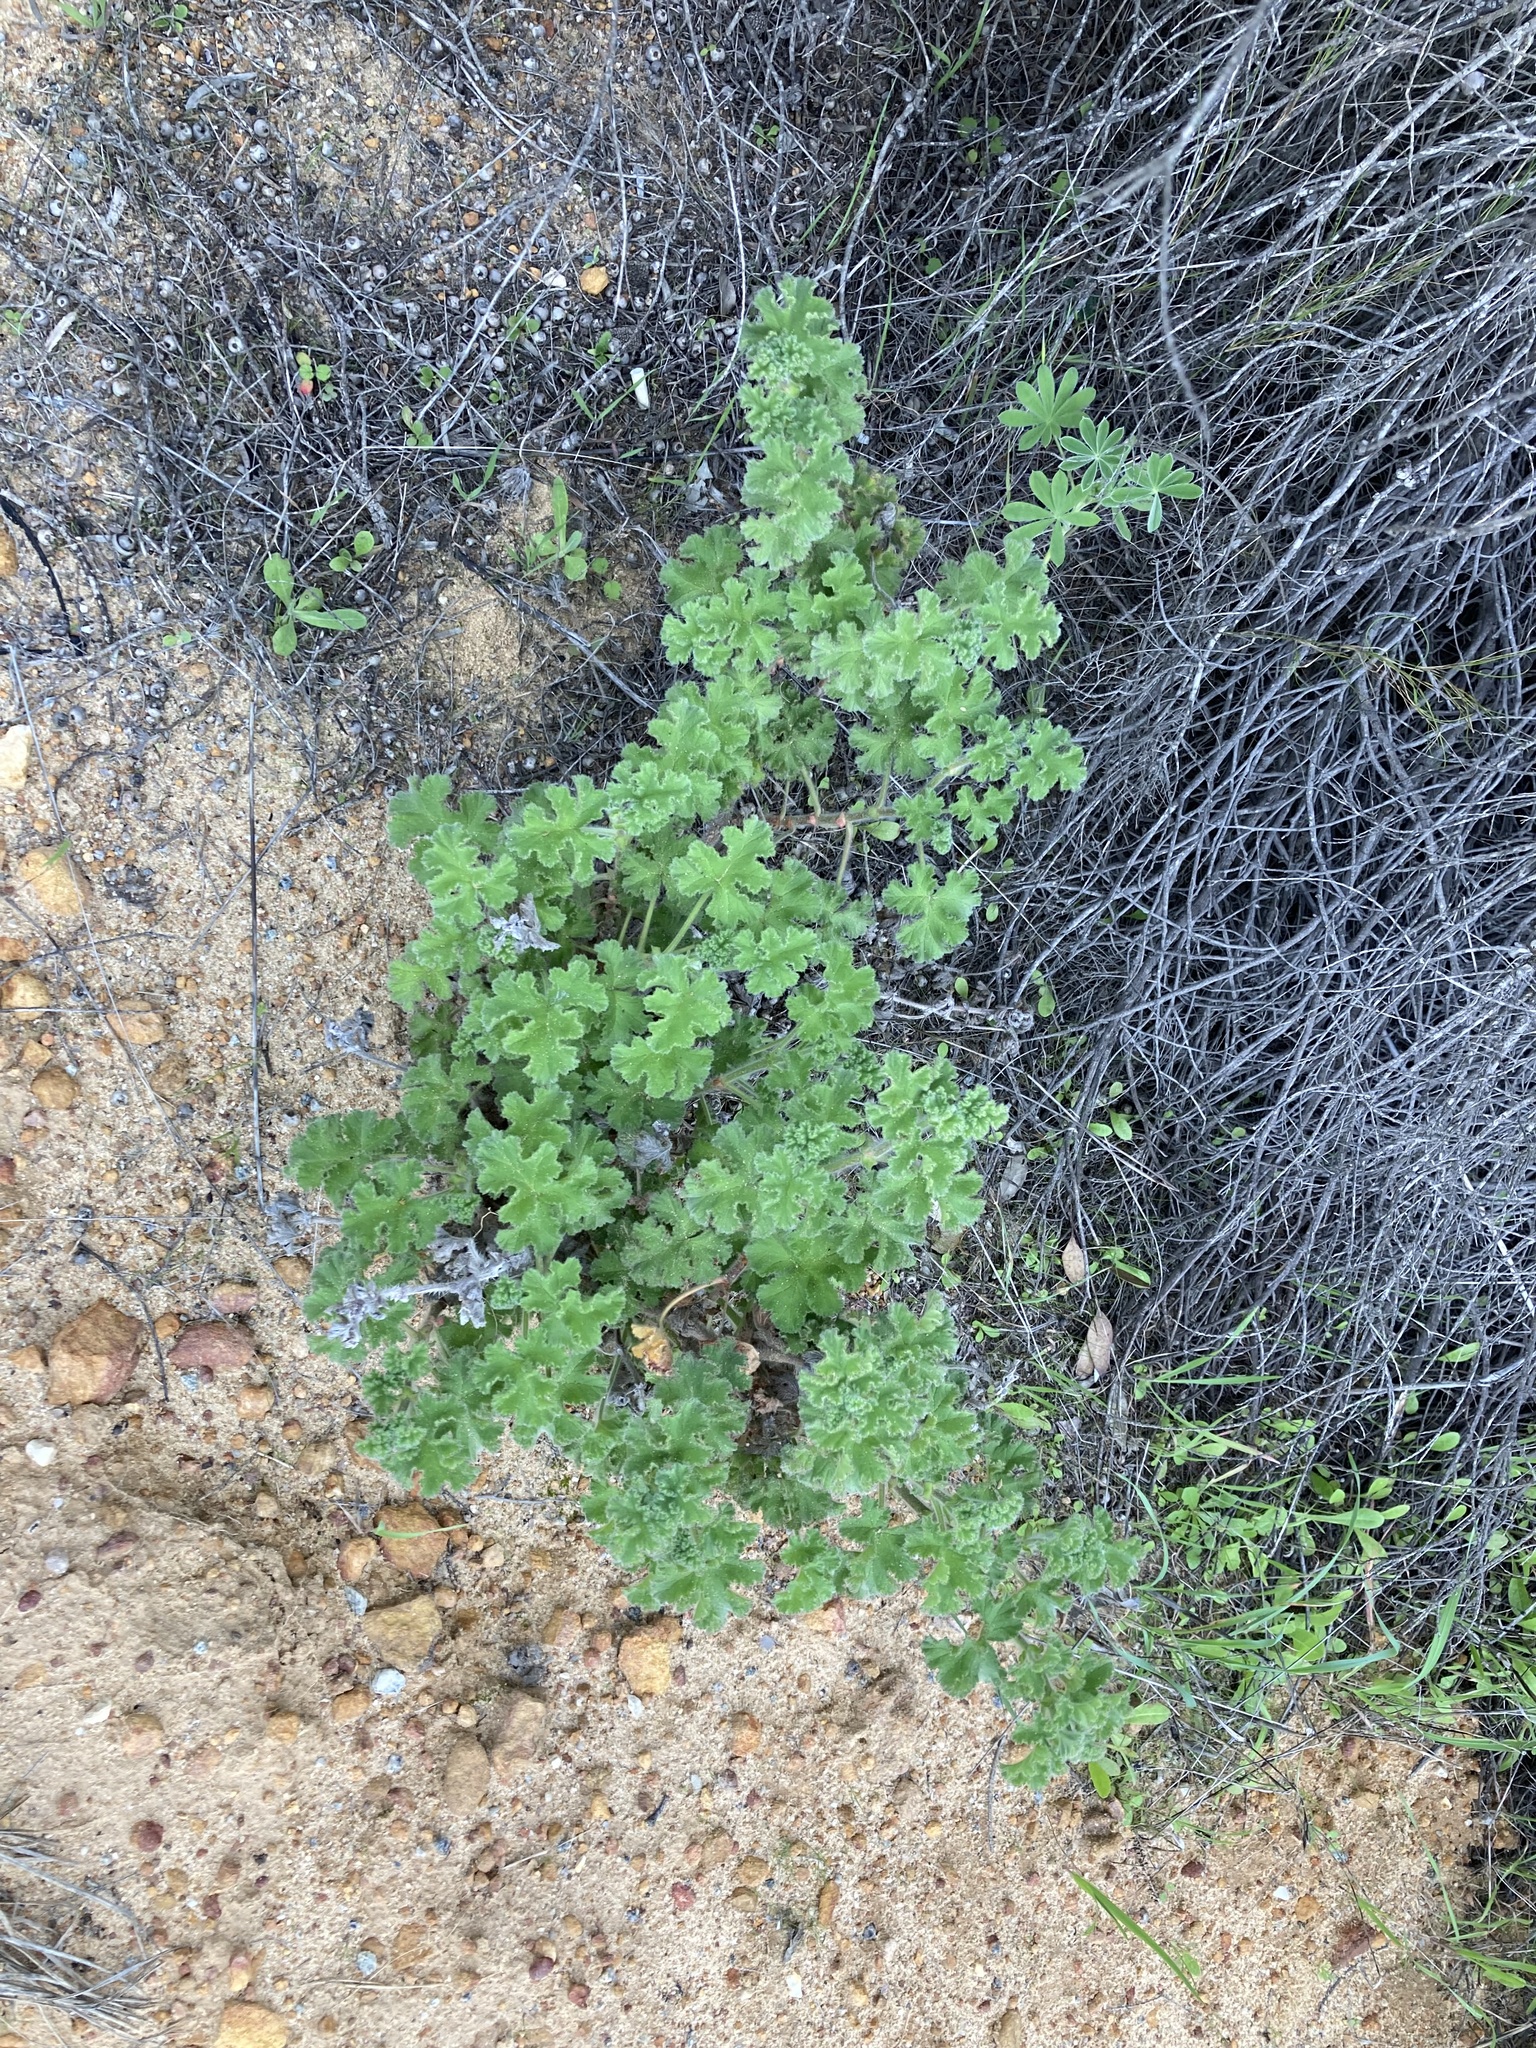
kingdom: Plantae
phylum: Tracheophyta
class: Magnoliopsida
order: Geraniales
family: Geraniaceae
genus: Pelargonium
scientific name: Pelargonium capitatum
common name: Rose scented geranium
